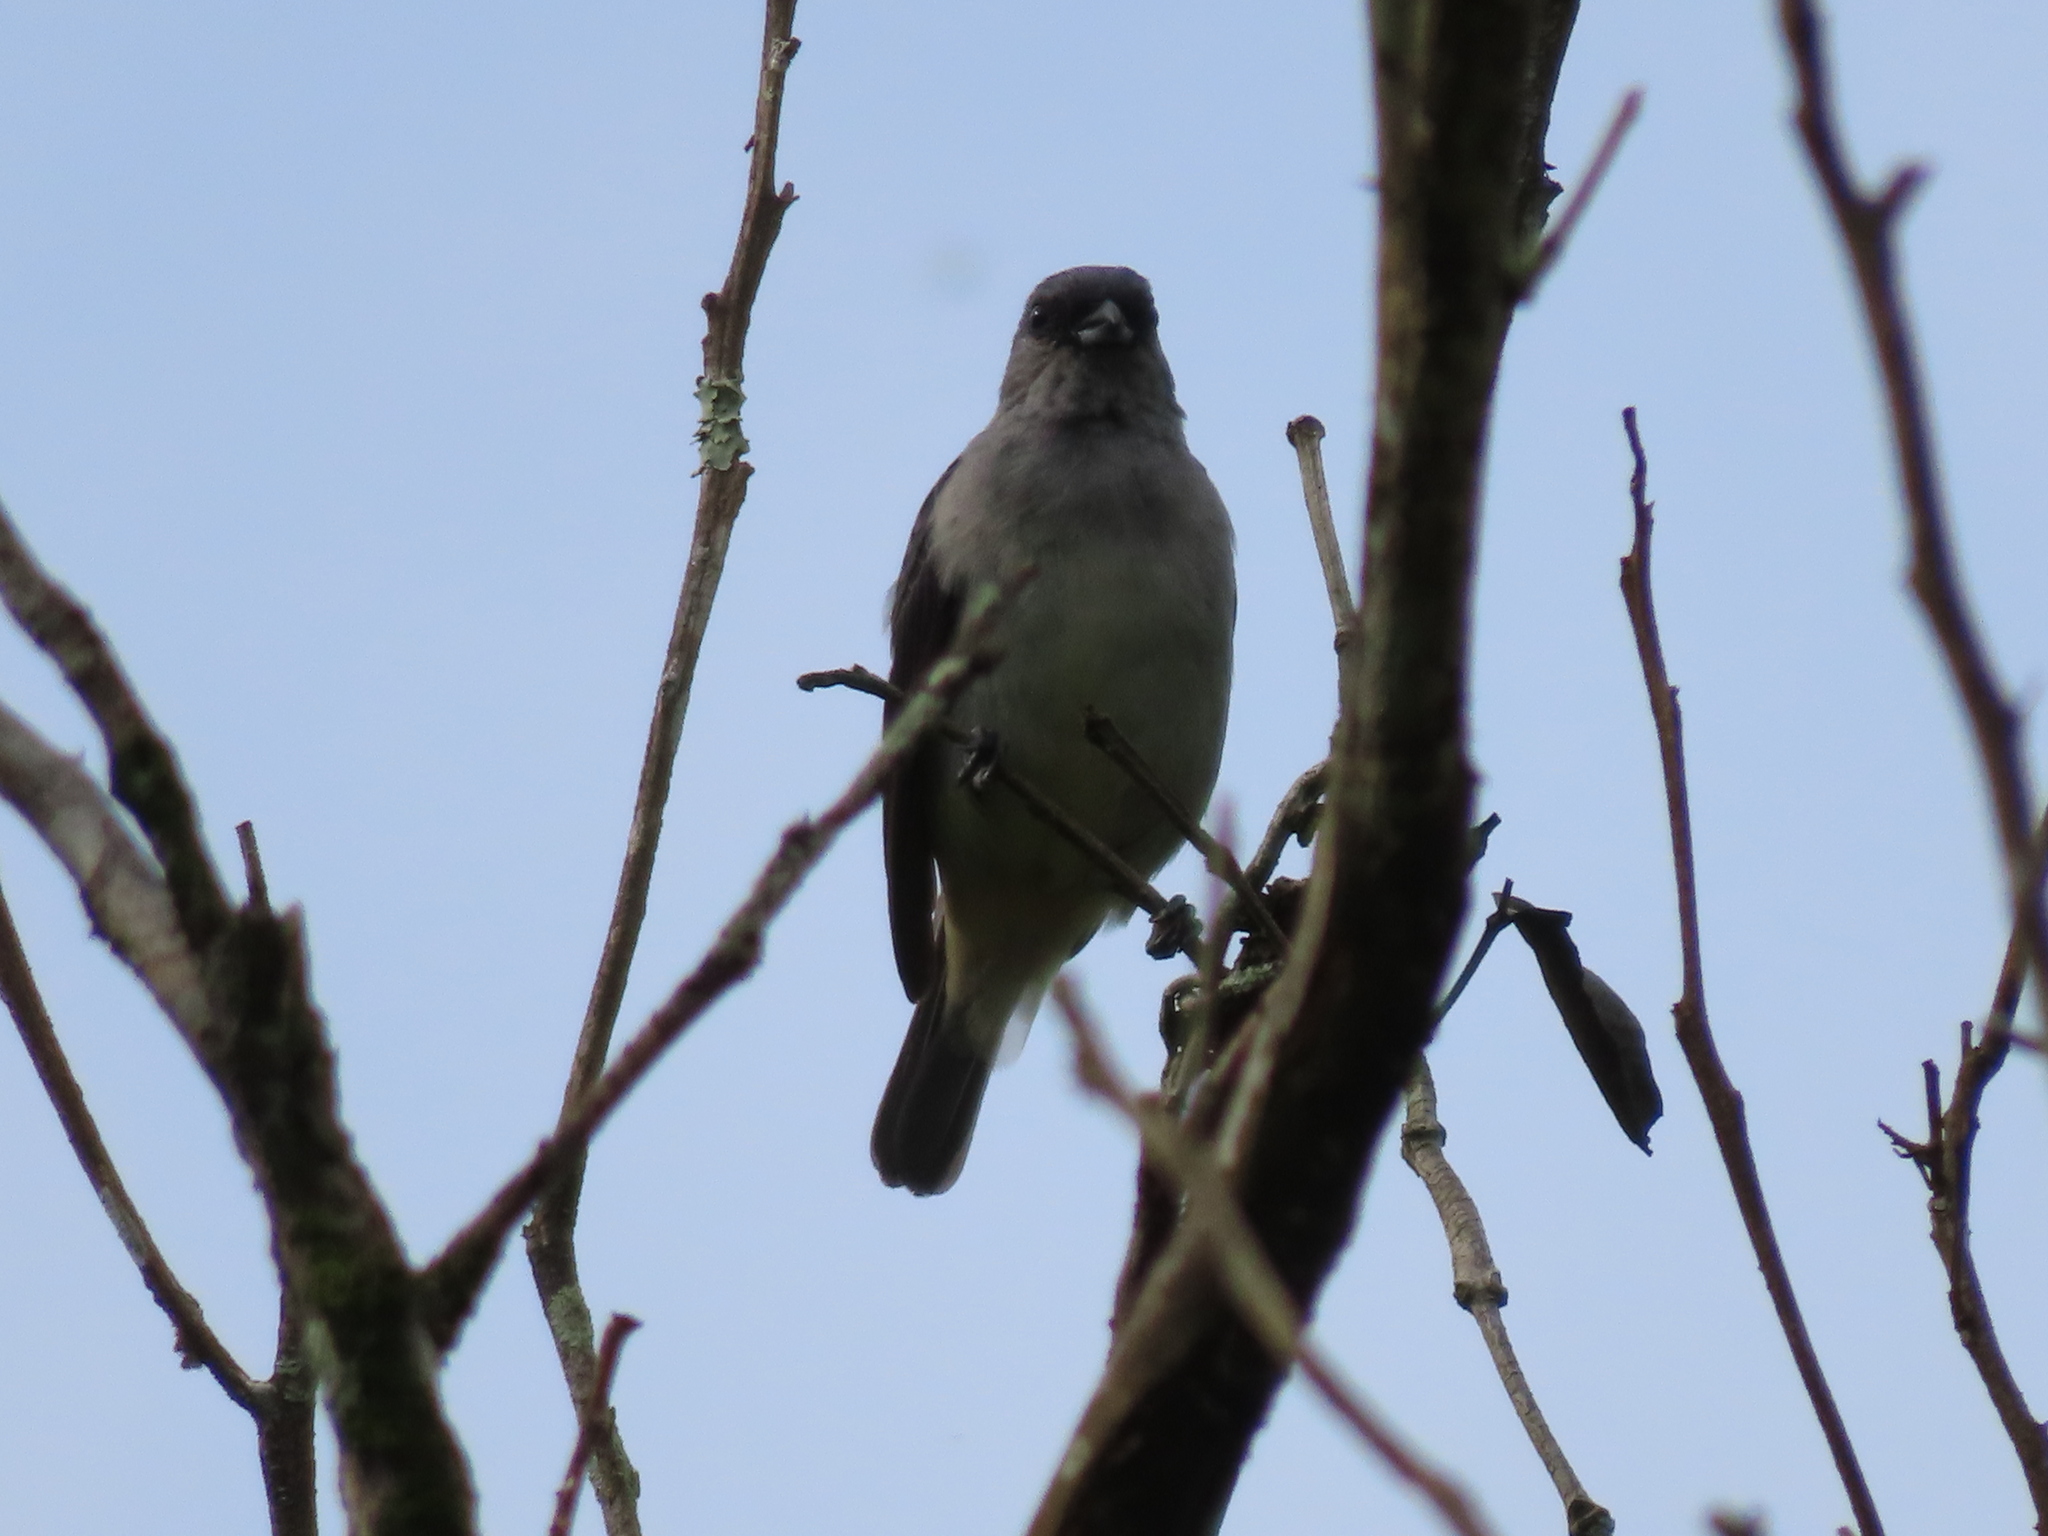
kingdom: Animalia
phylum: Chordata
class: Aves
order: Passeriformes
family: Thraupidae
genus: Tangara
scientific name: Tangara inornata
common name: Plain-colored tanager
